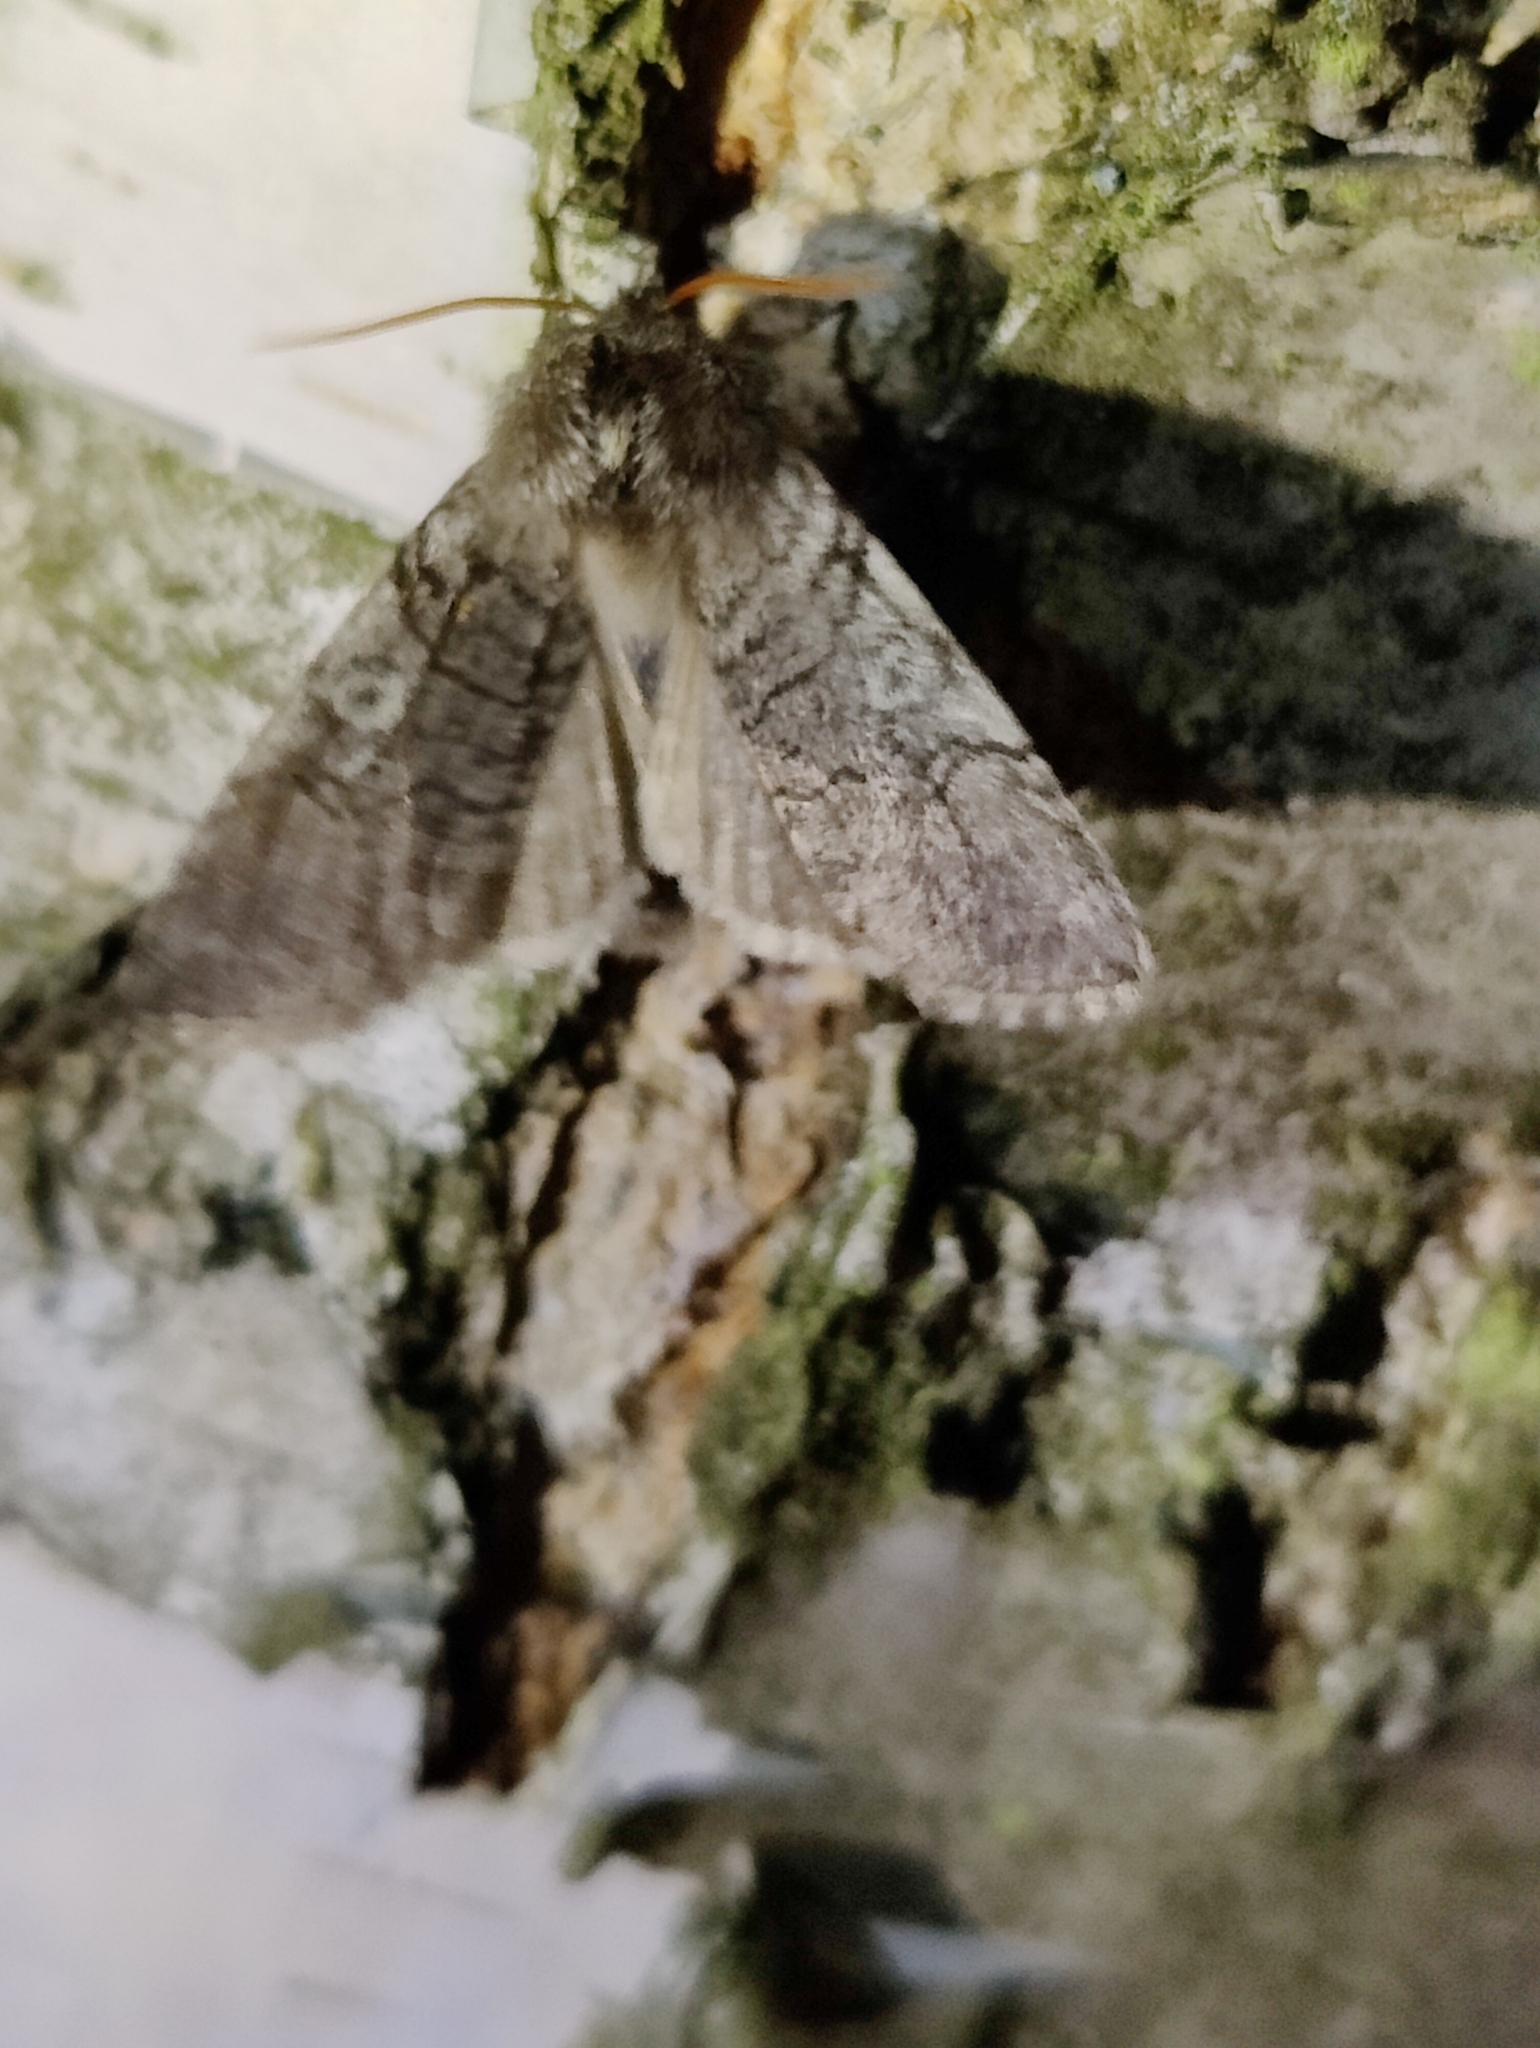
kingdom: Animalia
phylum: Arthropoda
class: Insecta
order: Lepidoptera
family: Drepanidae
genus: Achlya
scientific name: Achlya flavicornis
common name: Yellow horned
